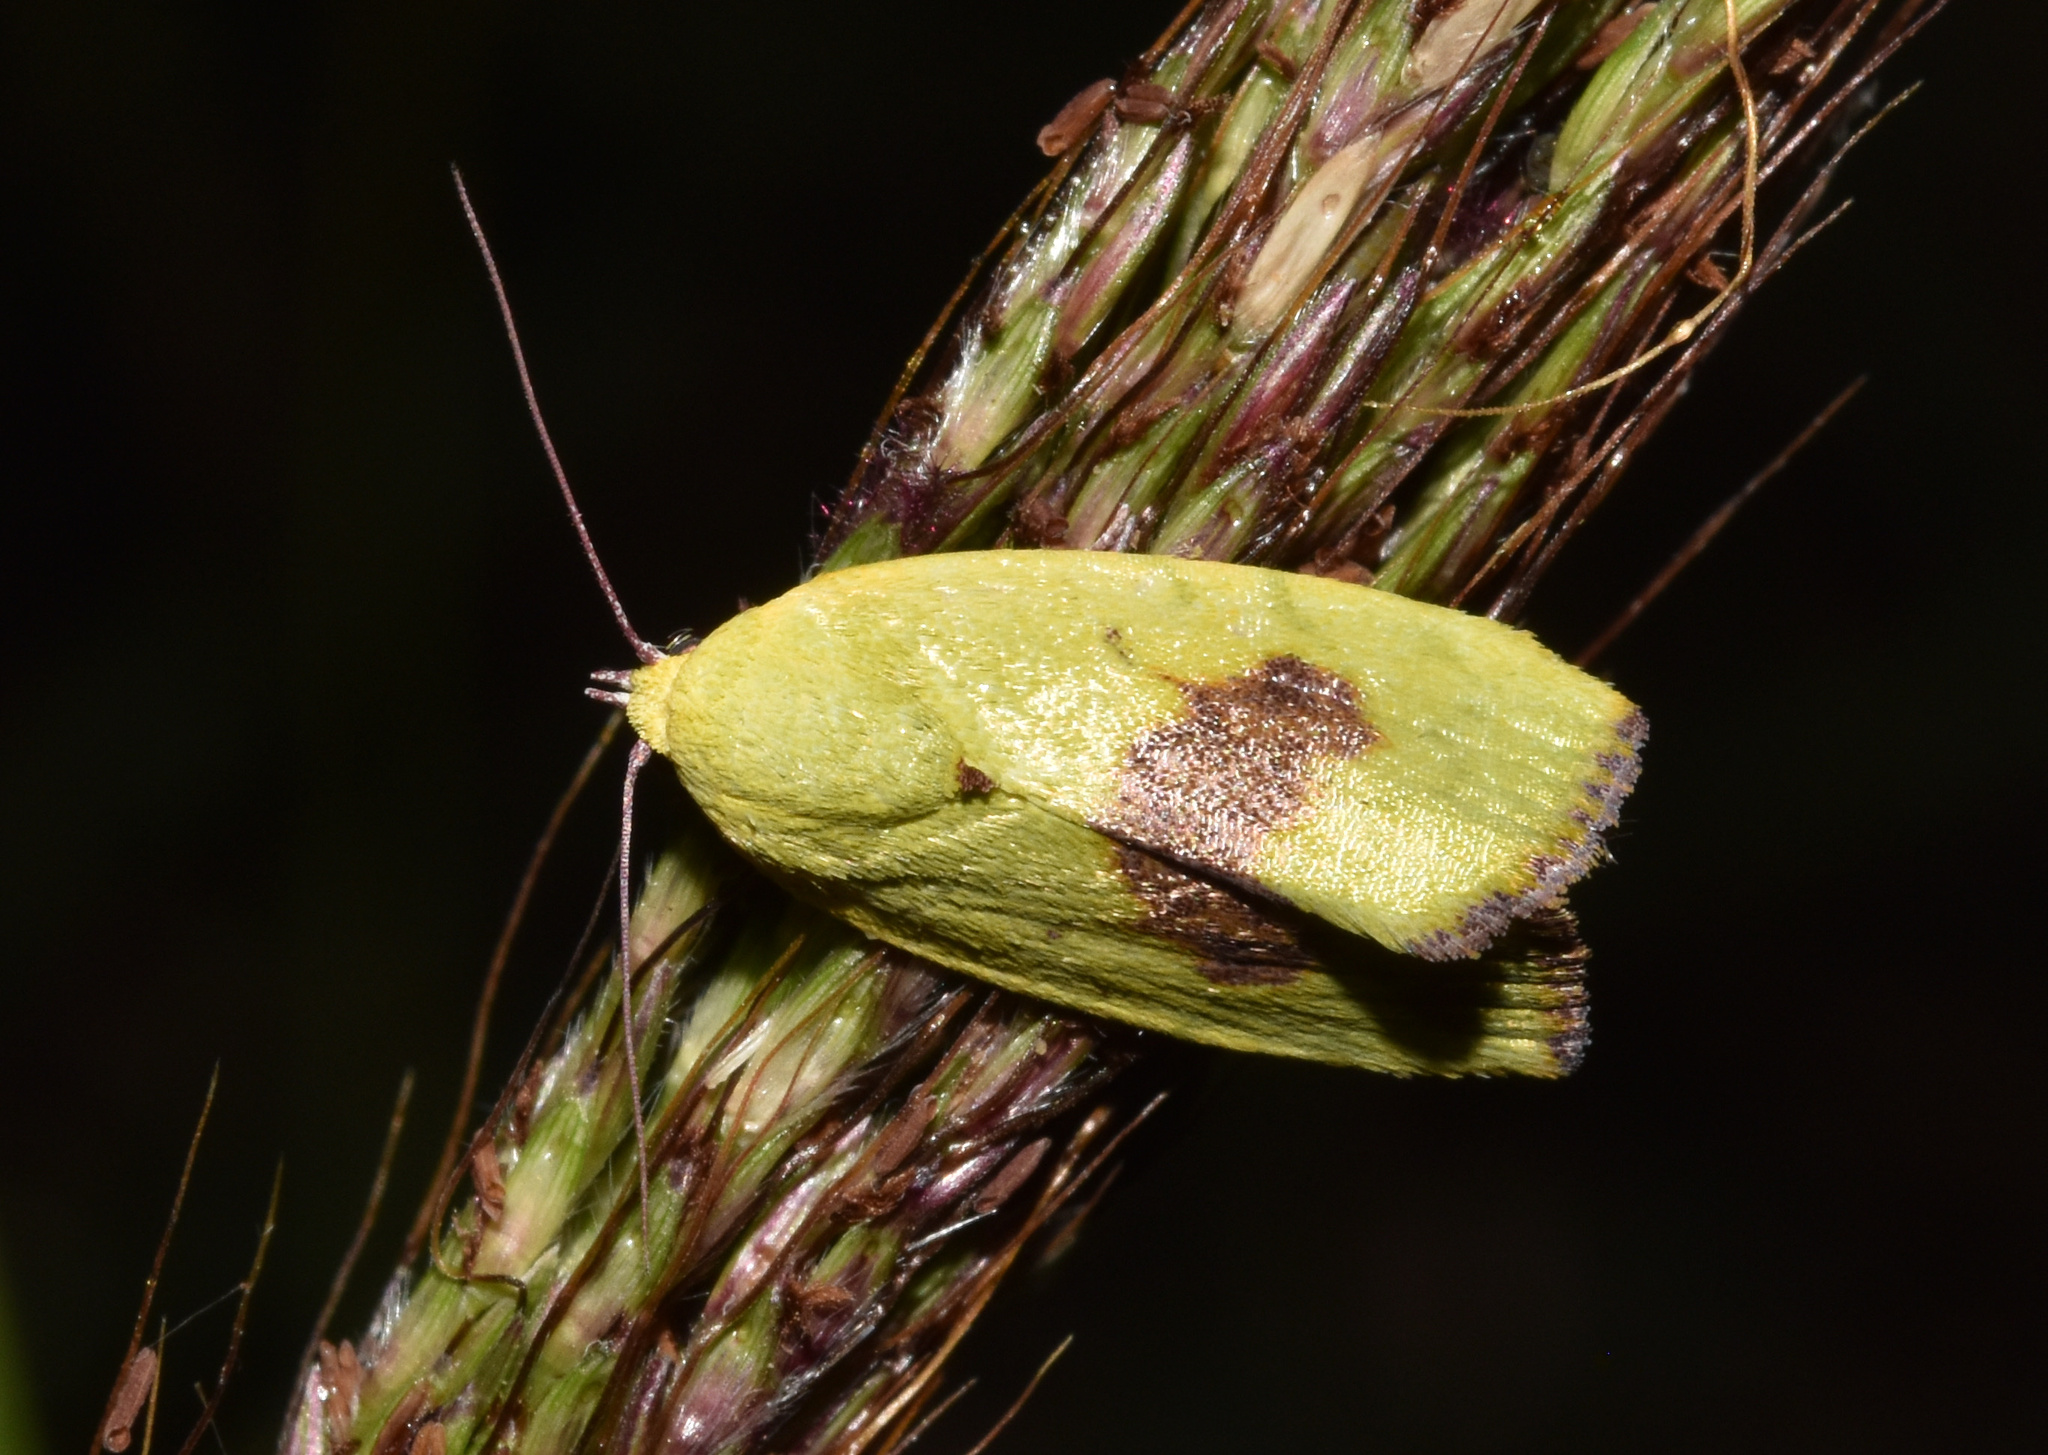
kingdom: Animalia
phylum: Arthropoda
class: Insecta
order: Lepidoptera
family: Nolidae
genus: Earias
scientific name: Earias biplaga
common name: Spiny bollworm
